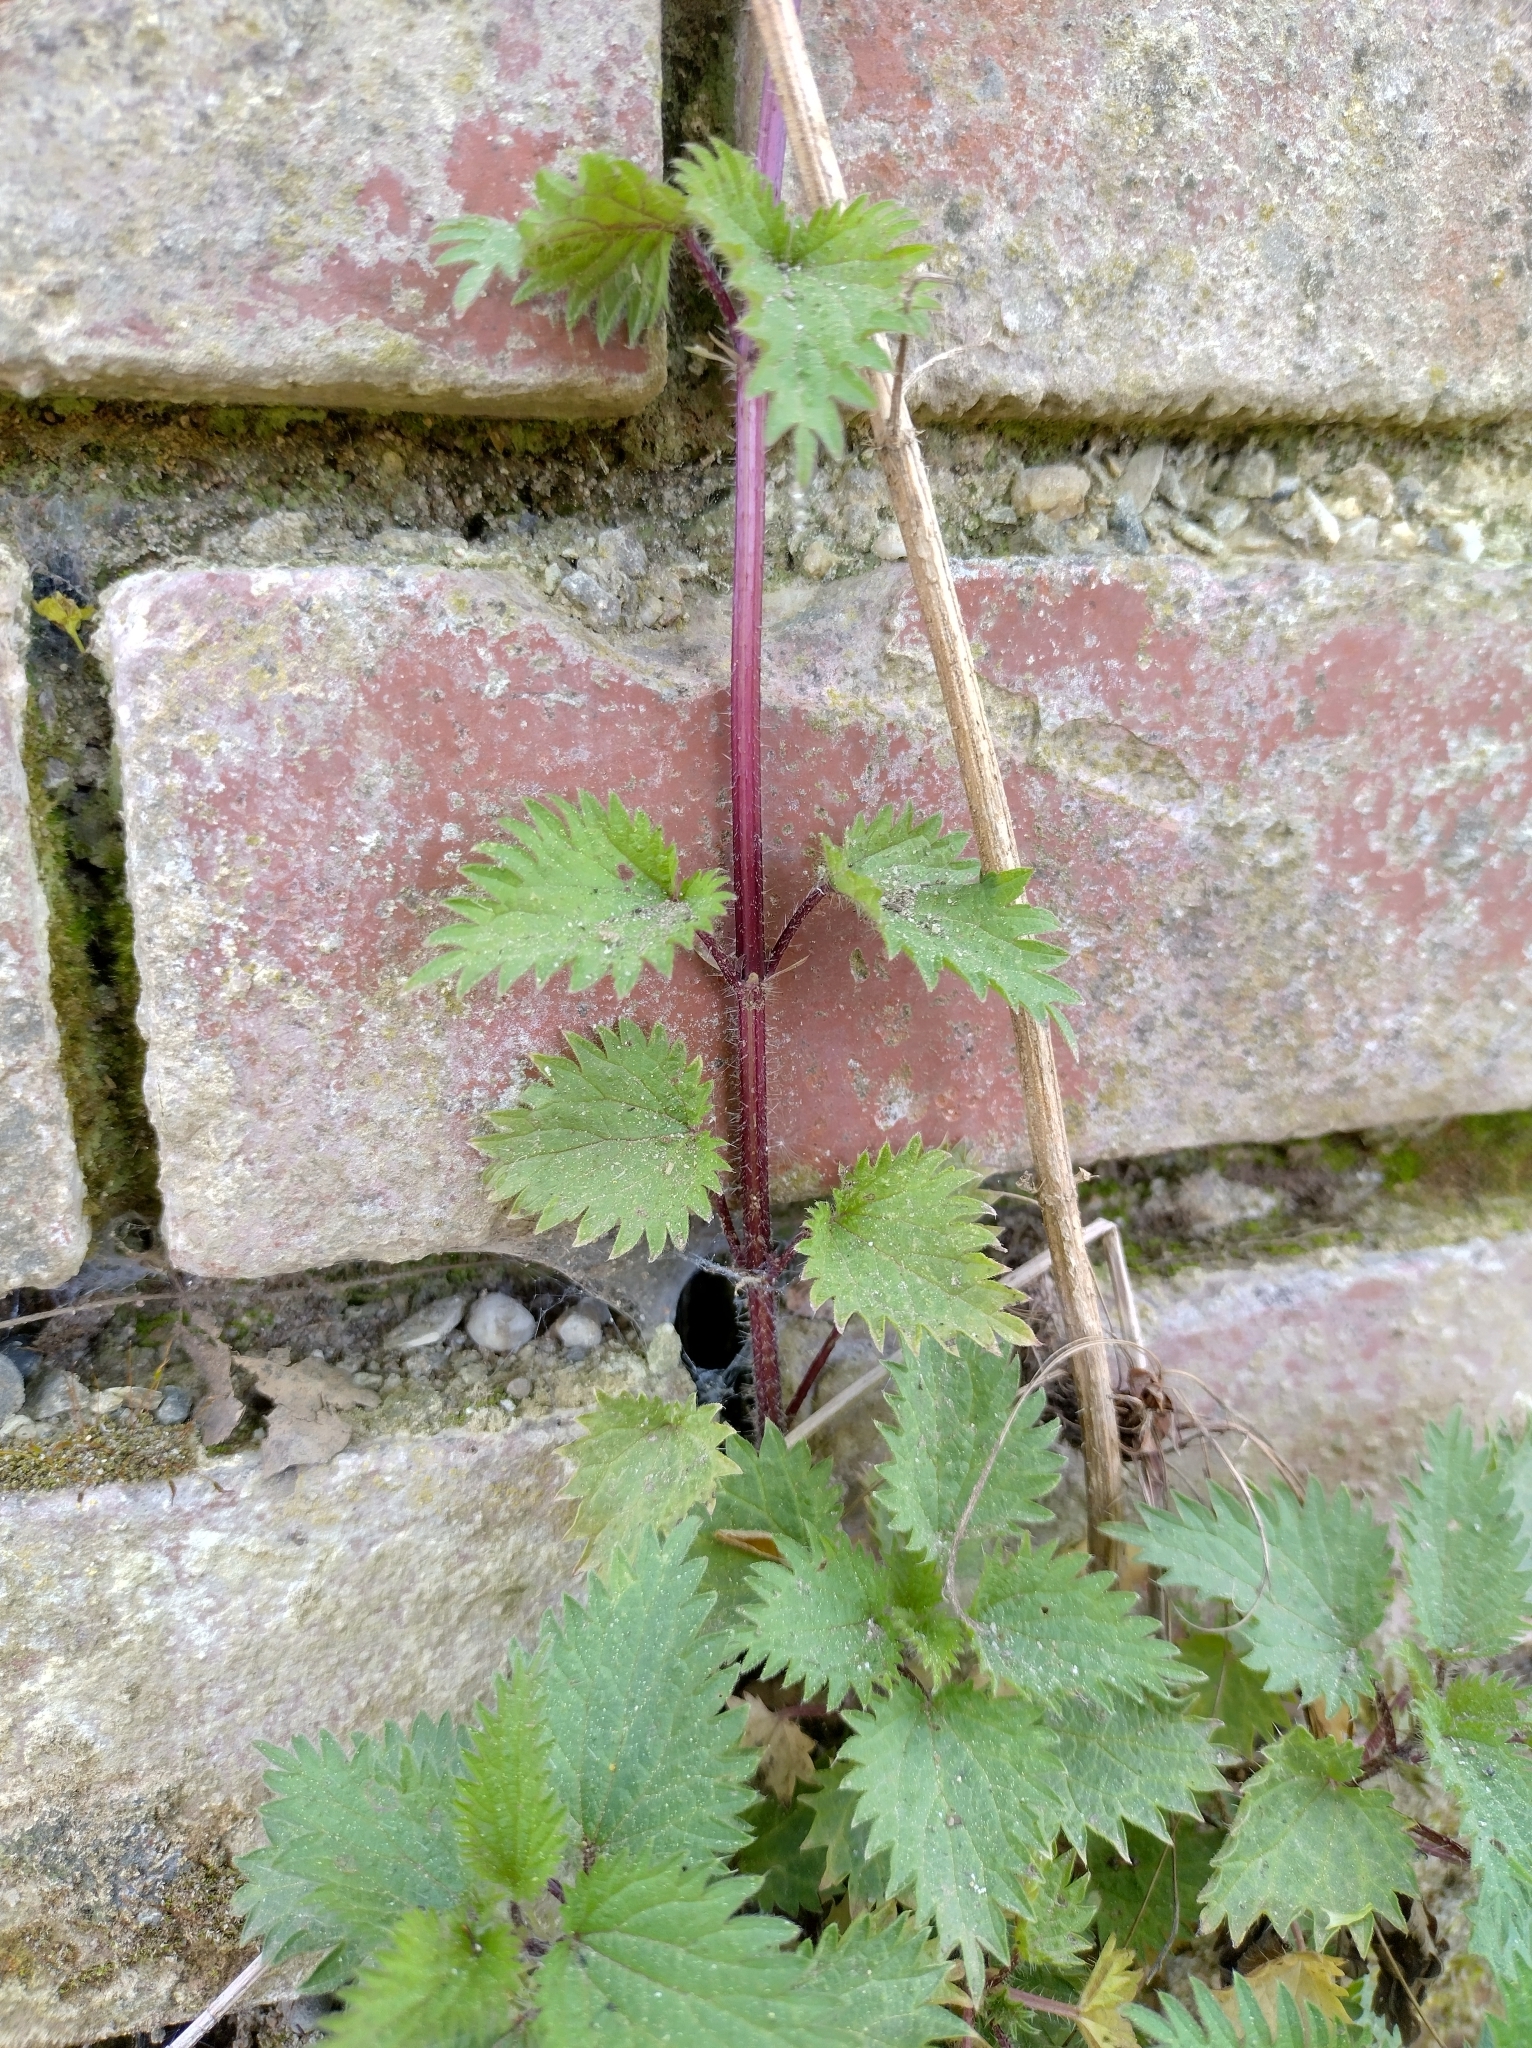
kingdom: Plantae
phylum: Tracheophyta
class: Magnoliopsida
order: Rosales
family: Urticaceae
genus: Urtica
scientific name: Urtica dioica
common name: Common nettle
